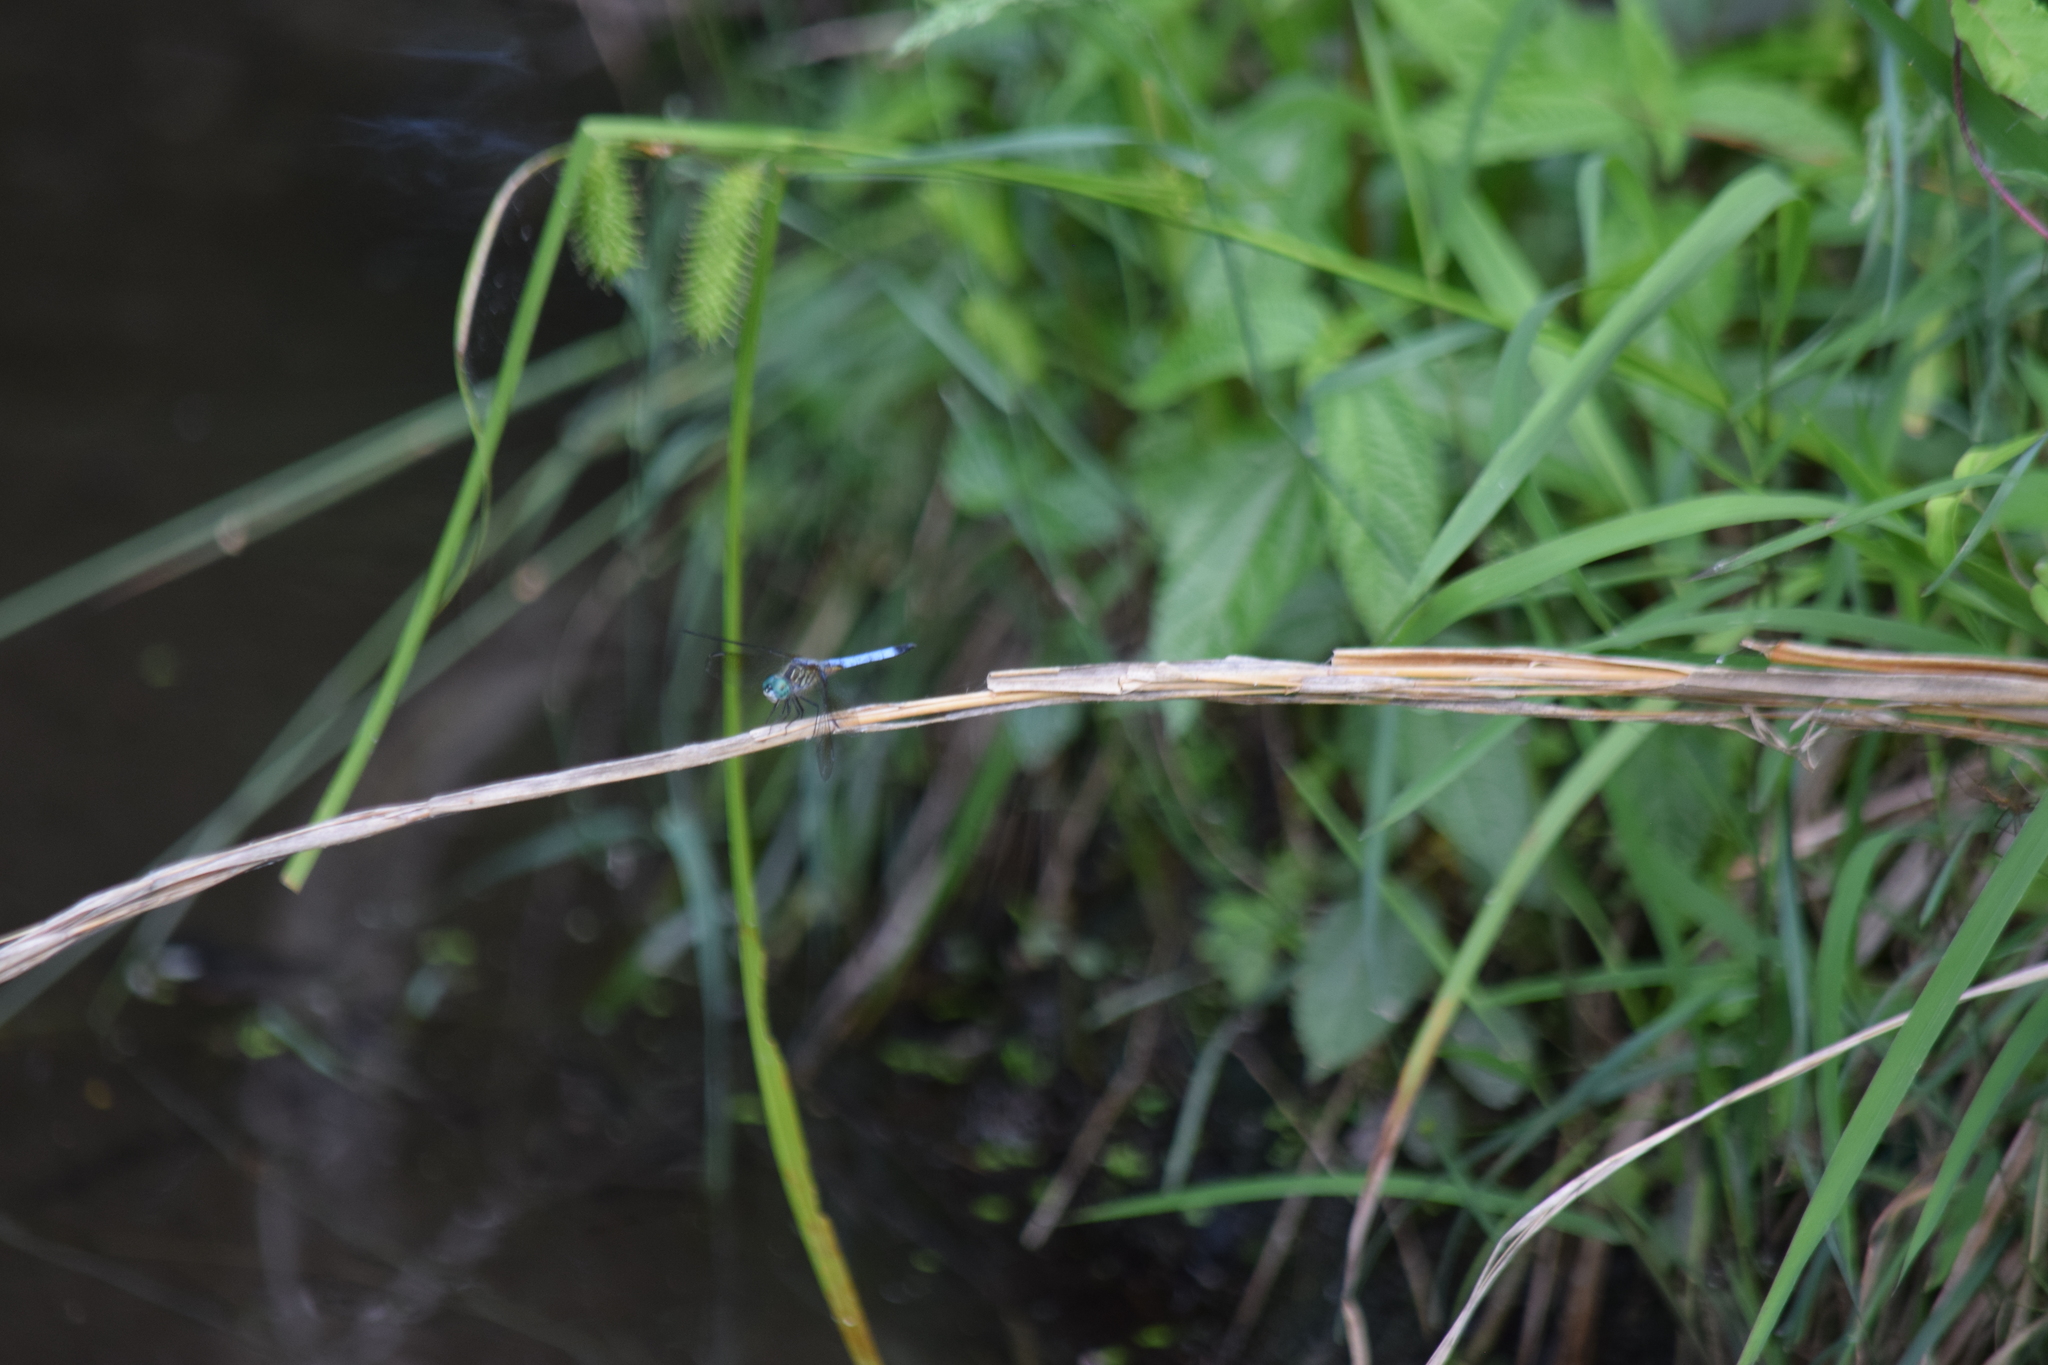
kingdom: Animalia
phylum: Arthropoda
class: Insecta
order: Odonata
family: Libellulidae
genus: Pachydiplax
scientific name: Pachydiplax longipennis
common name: Blue dasher
